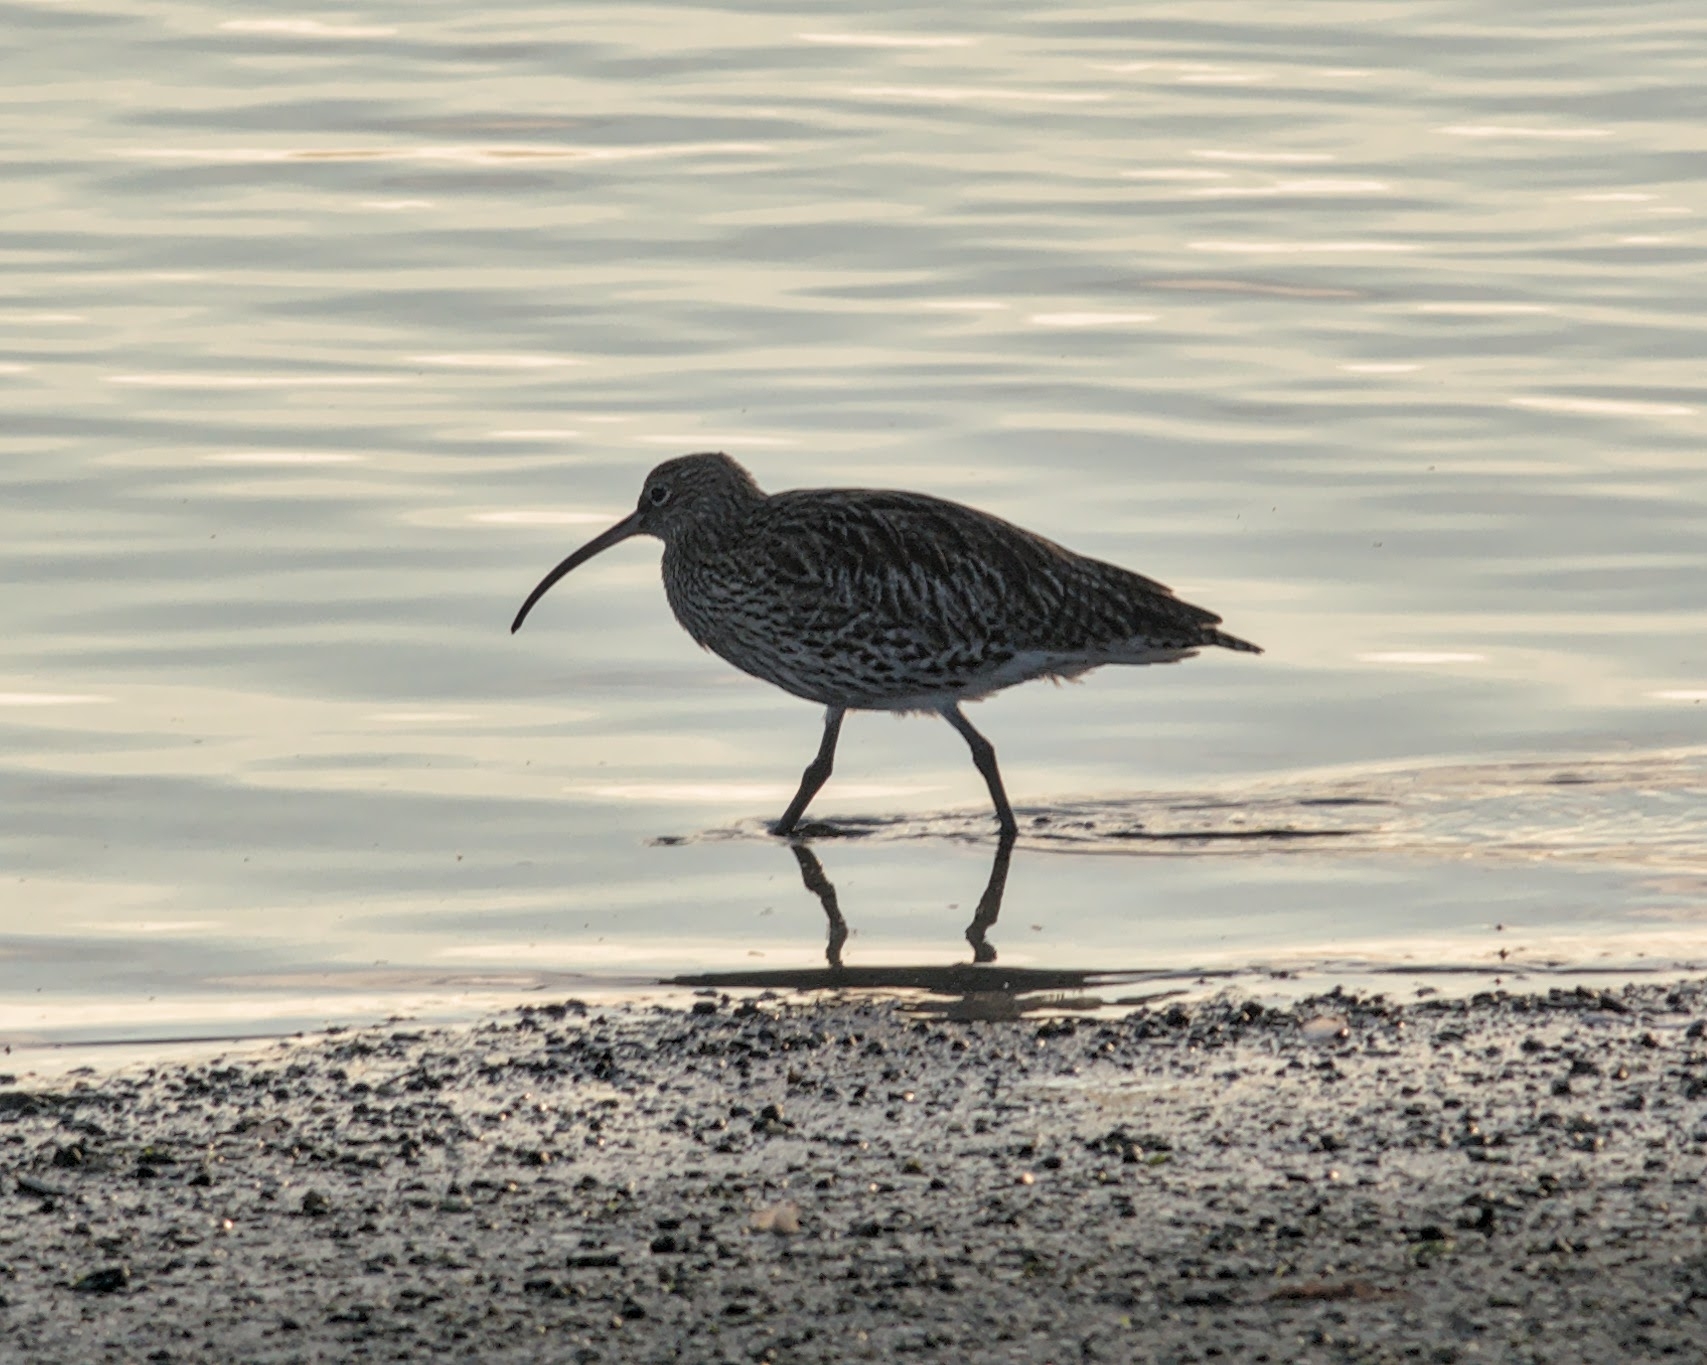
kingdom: Animalia
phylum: Chordata
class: Aves
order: Charadriiformes
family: Scolopacidae
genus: Numenius
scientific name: Numenius arquata
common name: Eurasian curlew
